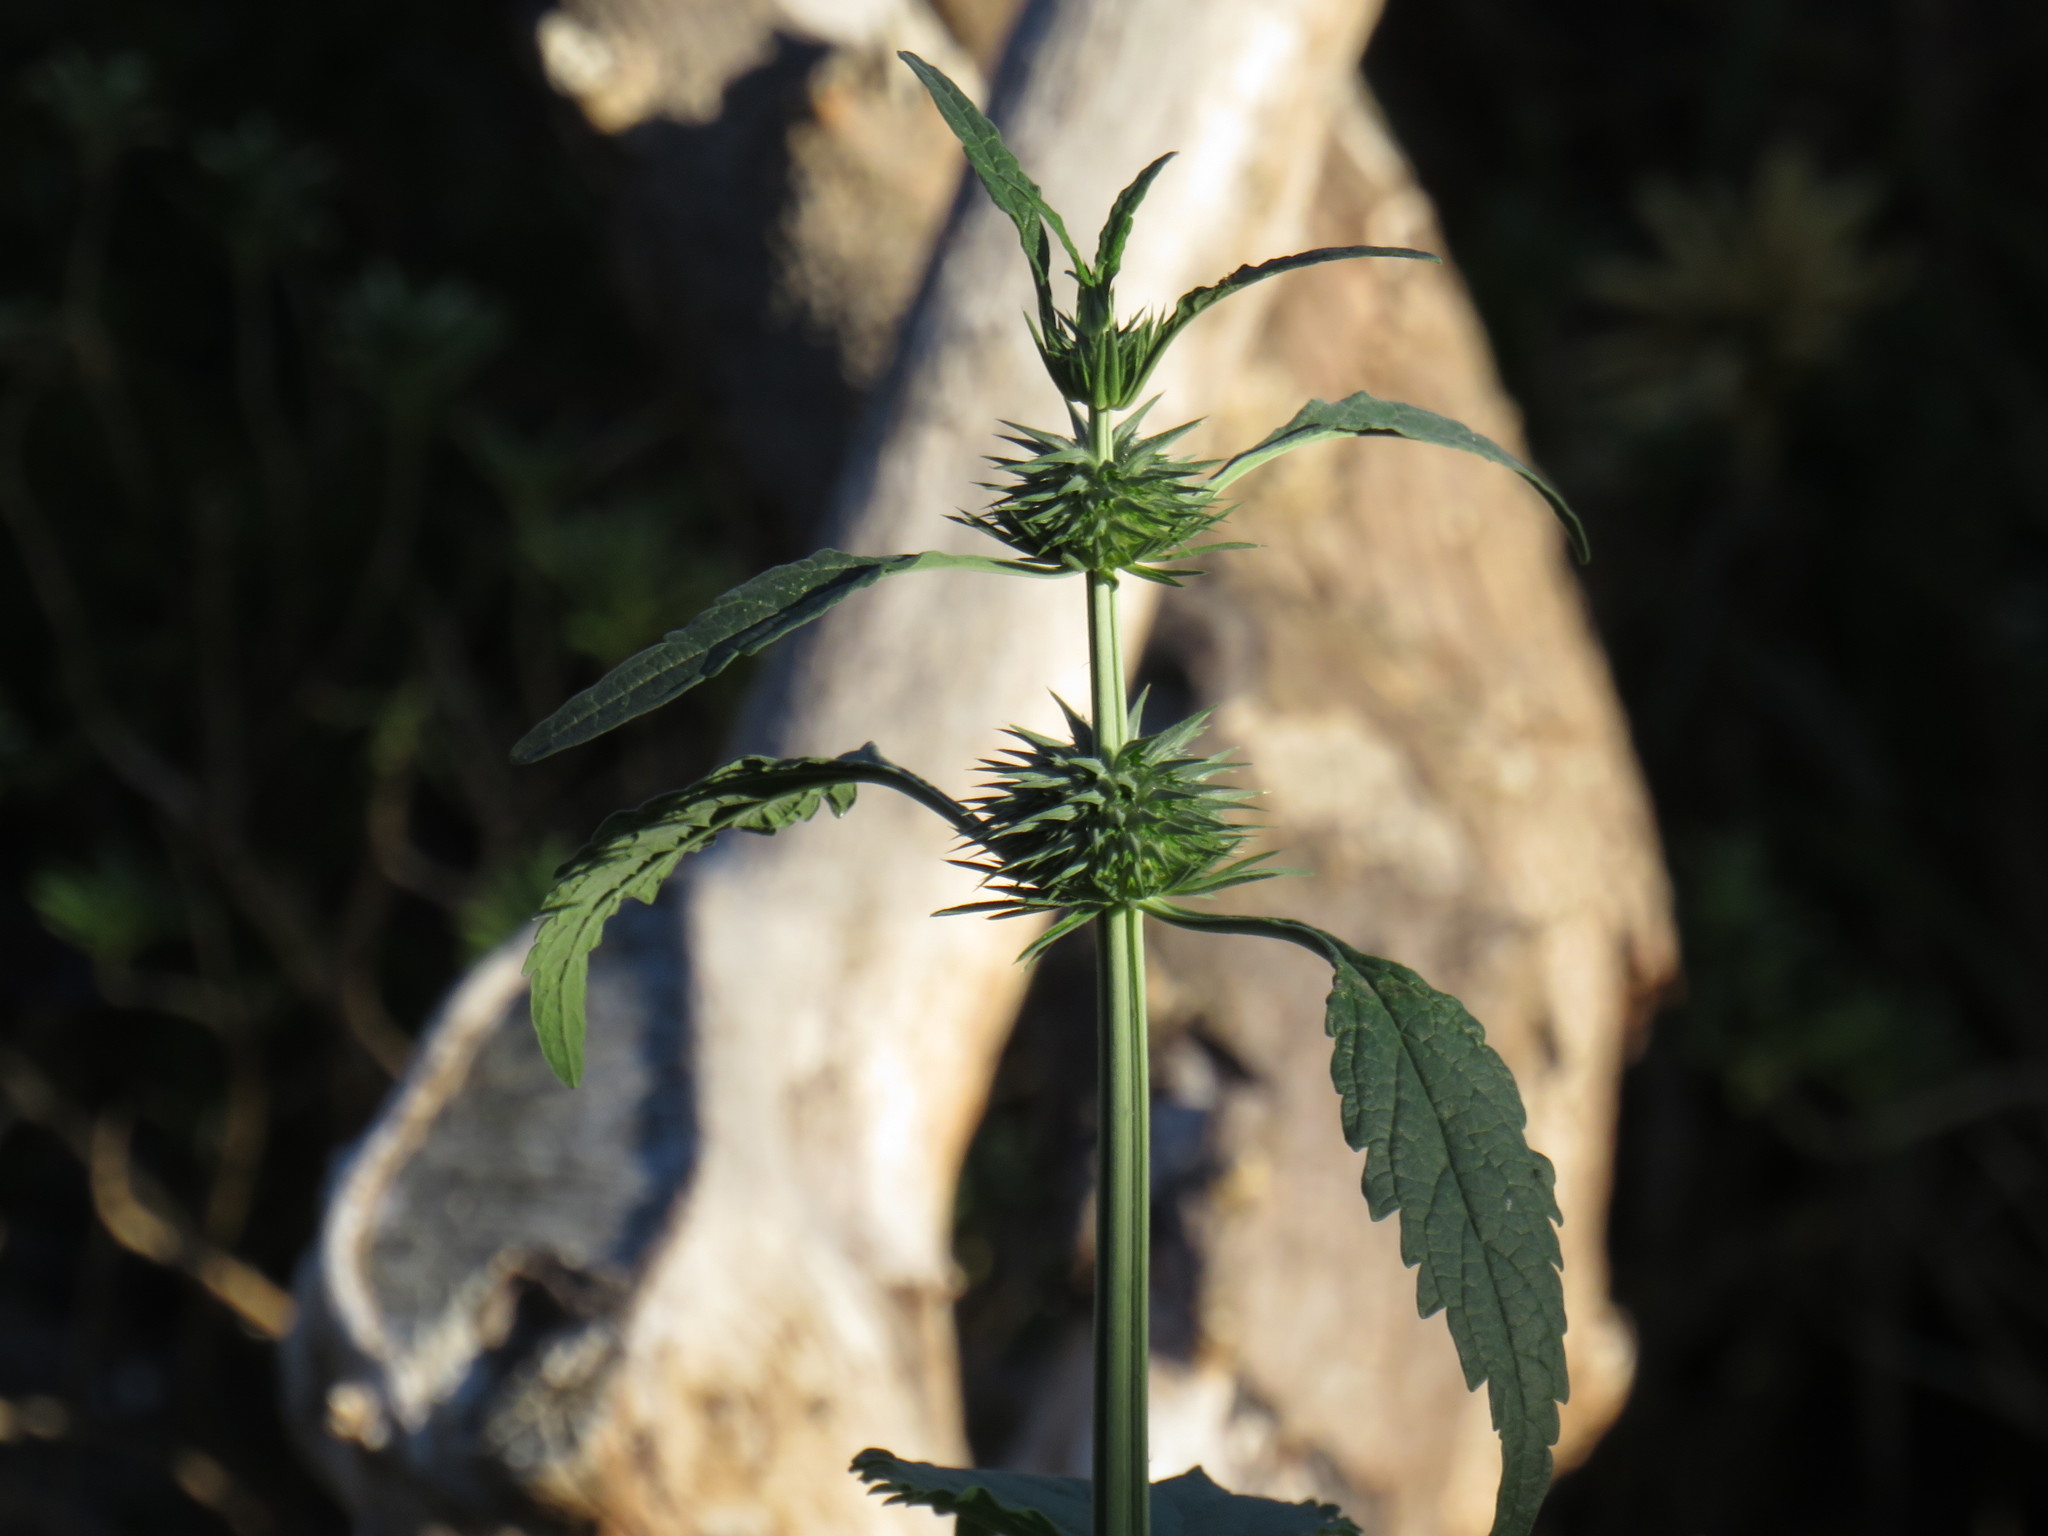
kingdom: Plantae
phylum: Tracheophyta
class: Magnoliopsida
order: Lamiales
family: Lamiaceae
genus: Leonotis
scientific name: Leonotis nepetifolia
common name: Christmas candlestick
